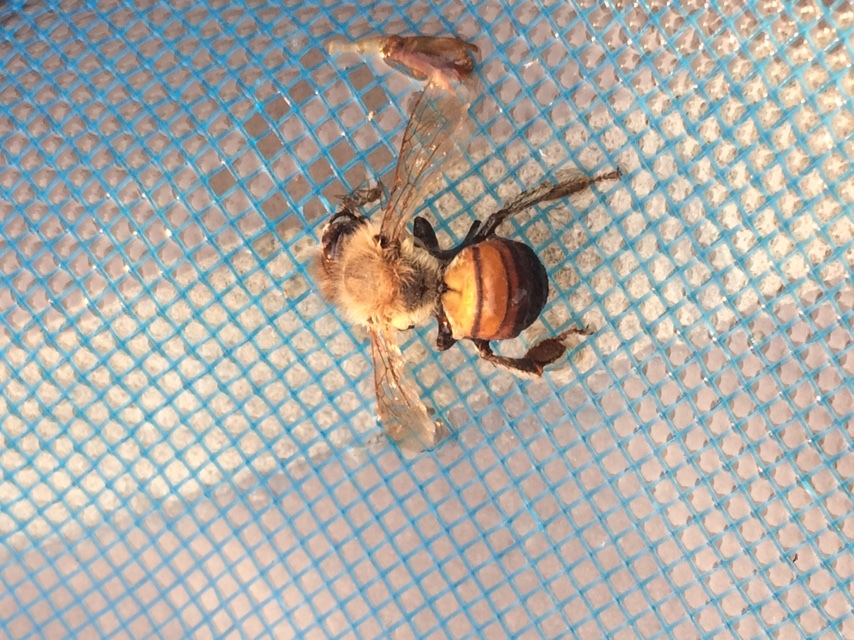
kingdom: Animalia
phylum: Arthropoda
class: Insecta
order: Hymenoptera
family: Apidae
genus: Apis
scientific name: Apis mellifera
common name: Honey bee
